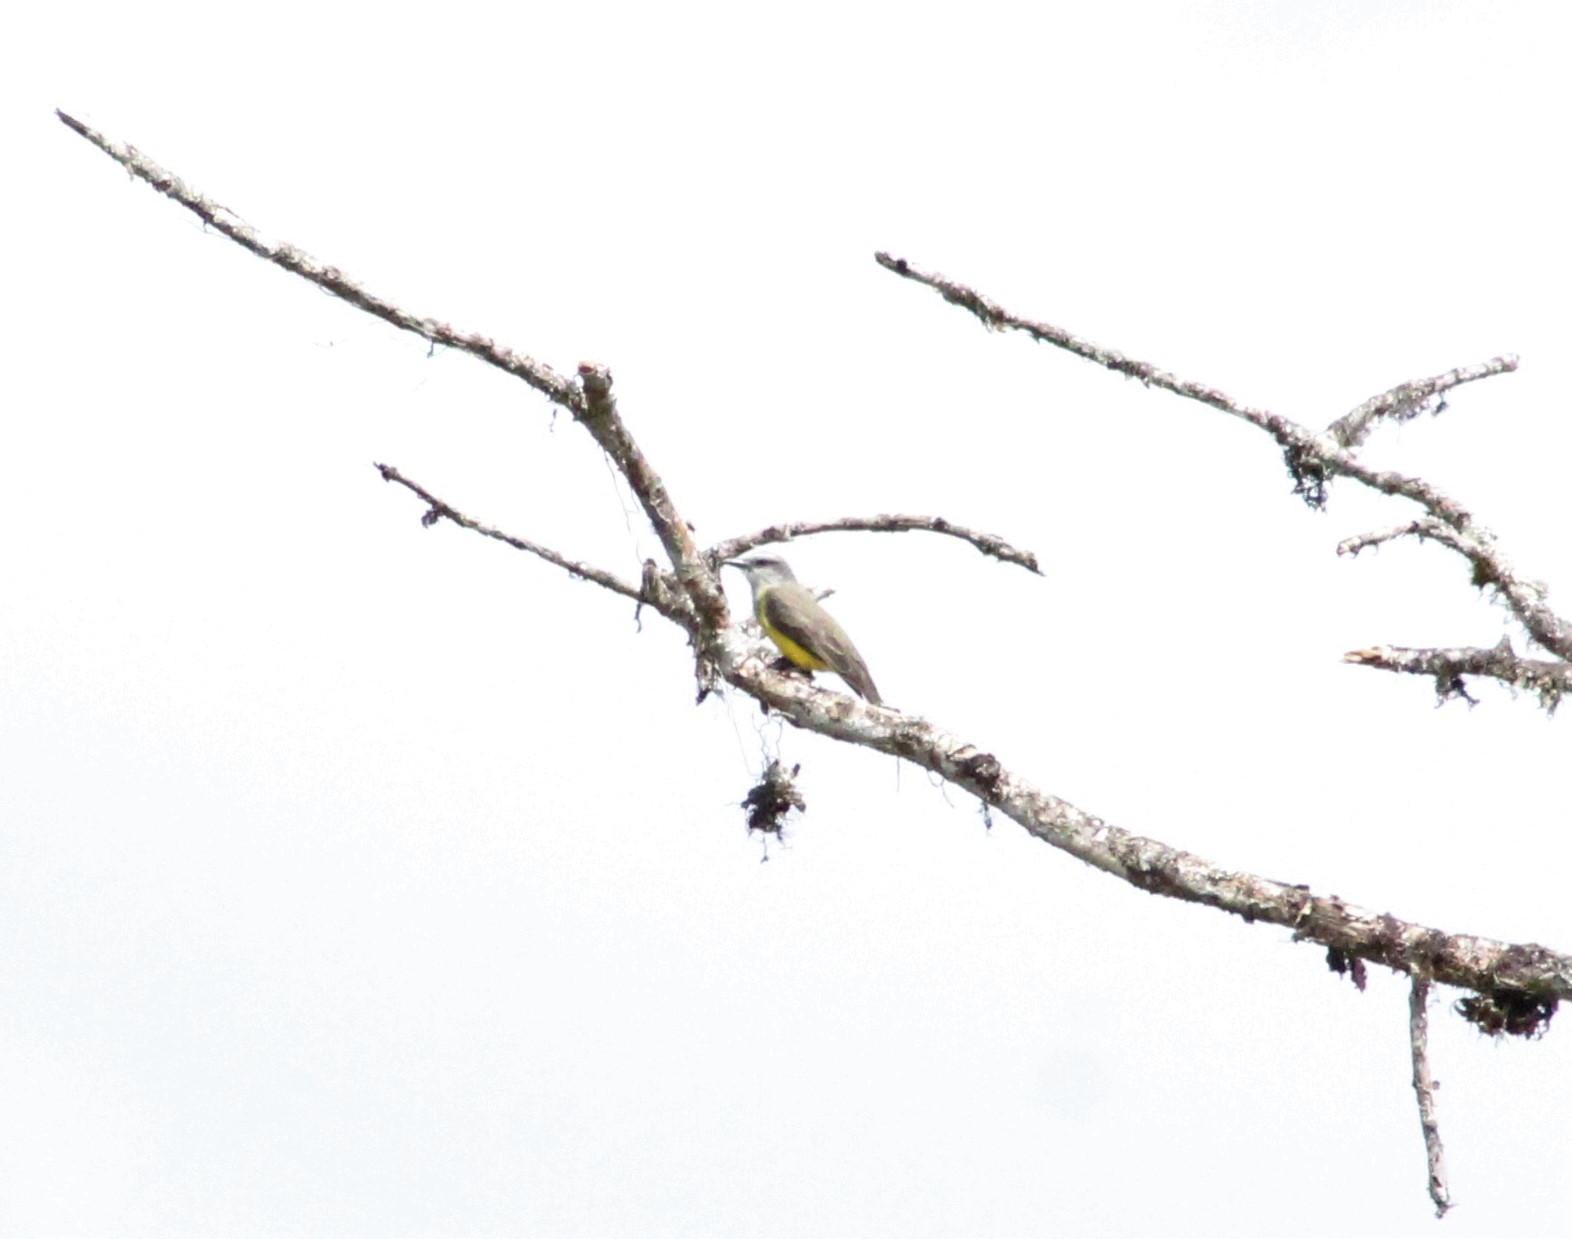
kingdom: Animalia
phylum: Chordata
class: Aves
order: Passeriformes
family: Tyrannidae
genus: Tyrannus
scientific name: Tyrannus melancholicus
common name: Tropical kingbird
